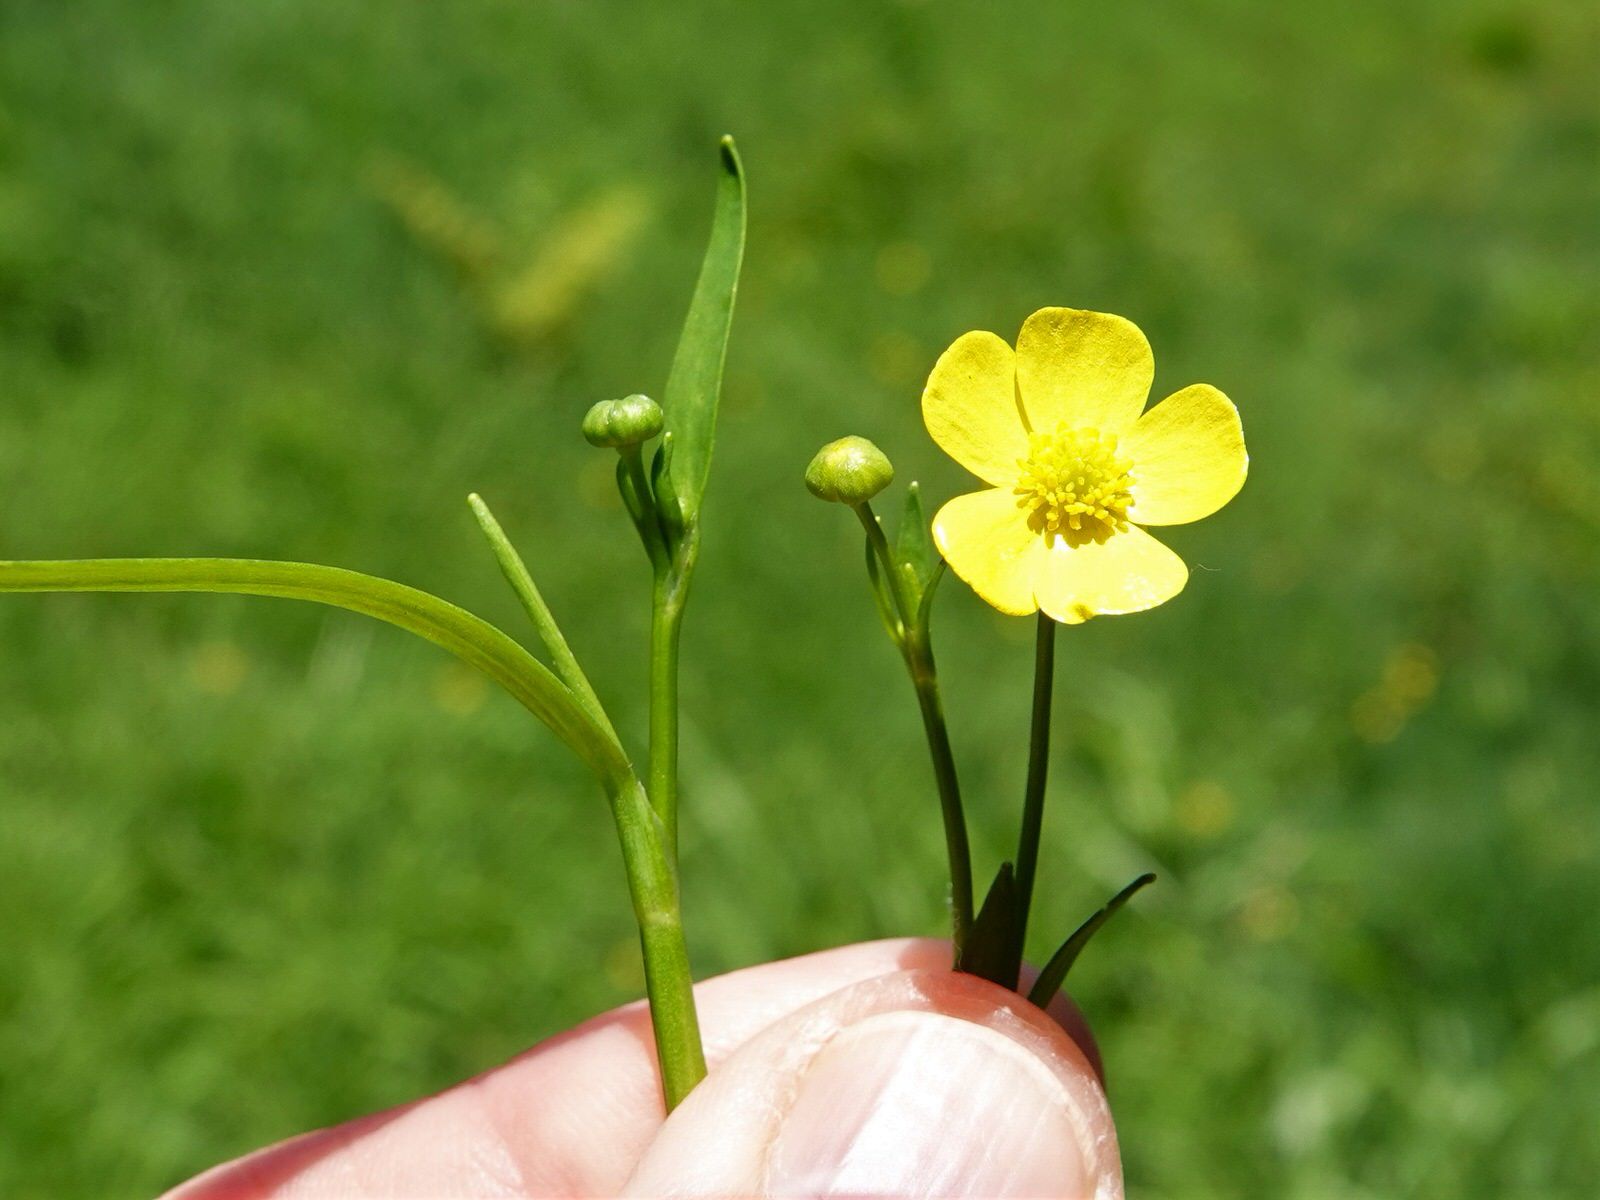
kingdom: Plantae
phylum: Tracheophyta
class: Magnoliopsida
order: Ranunculales
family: Ranunculaceae
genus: Ranunculus
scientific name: Ranunculus flammula
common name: Lesser spearwort
